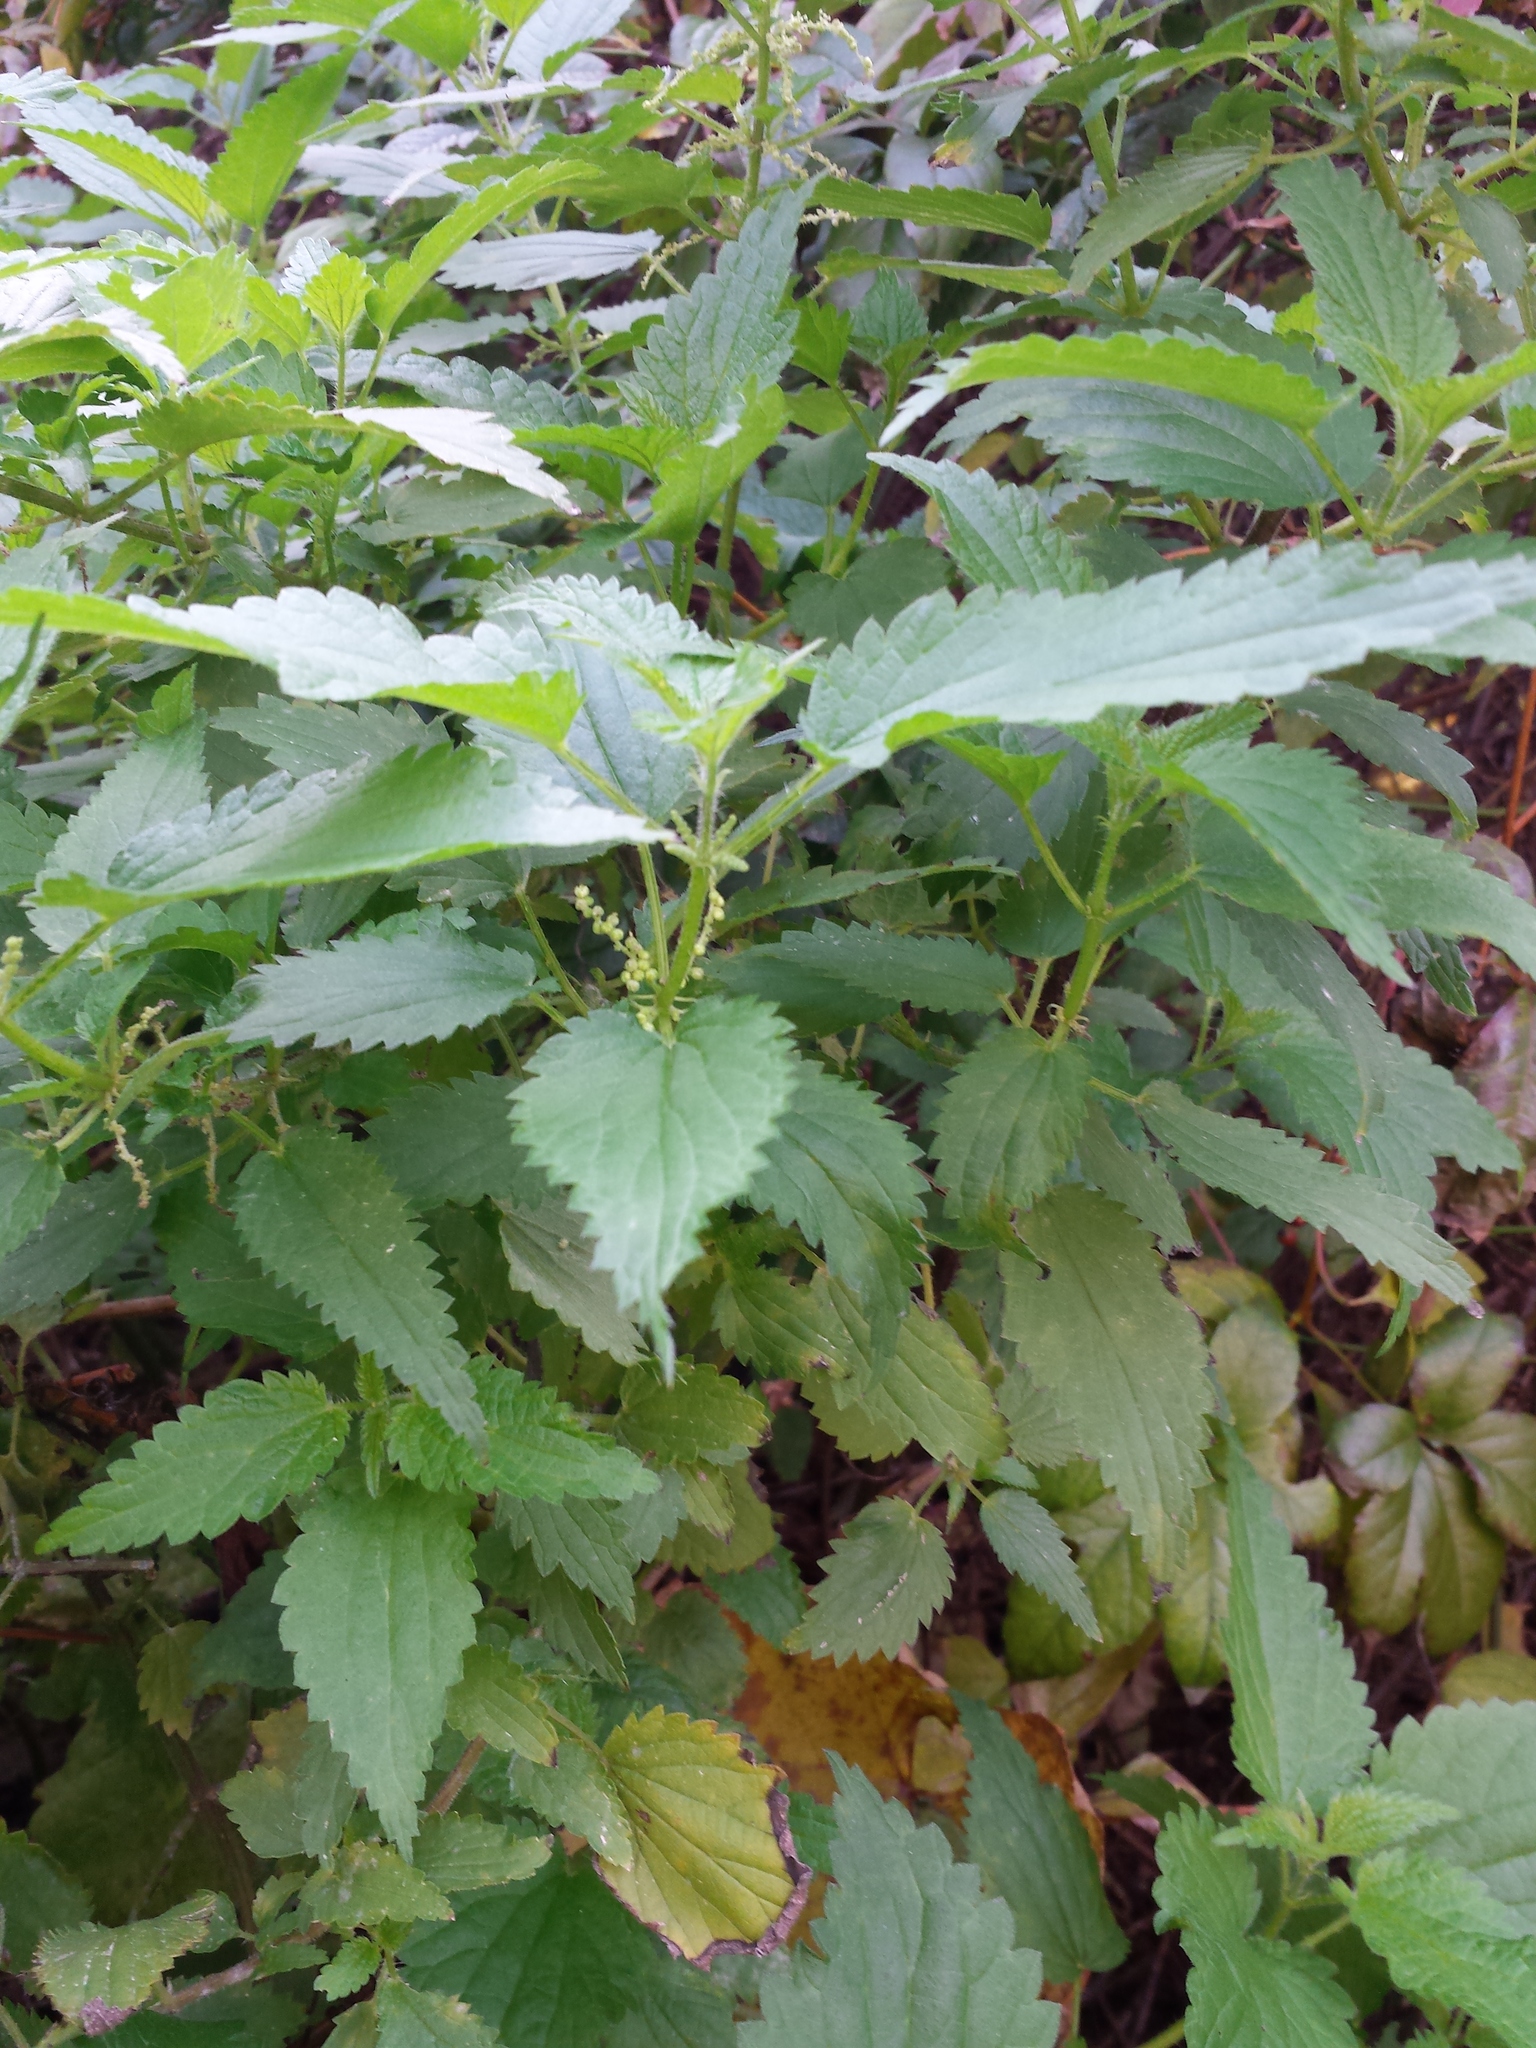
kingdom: Plantae
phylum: Tracheophyta
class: Magnoliopsida
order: Rosales
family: Urticaceae
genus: Urtica
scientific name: Urtica dioica
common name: Common nettle
